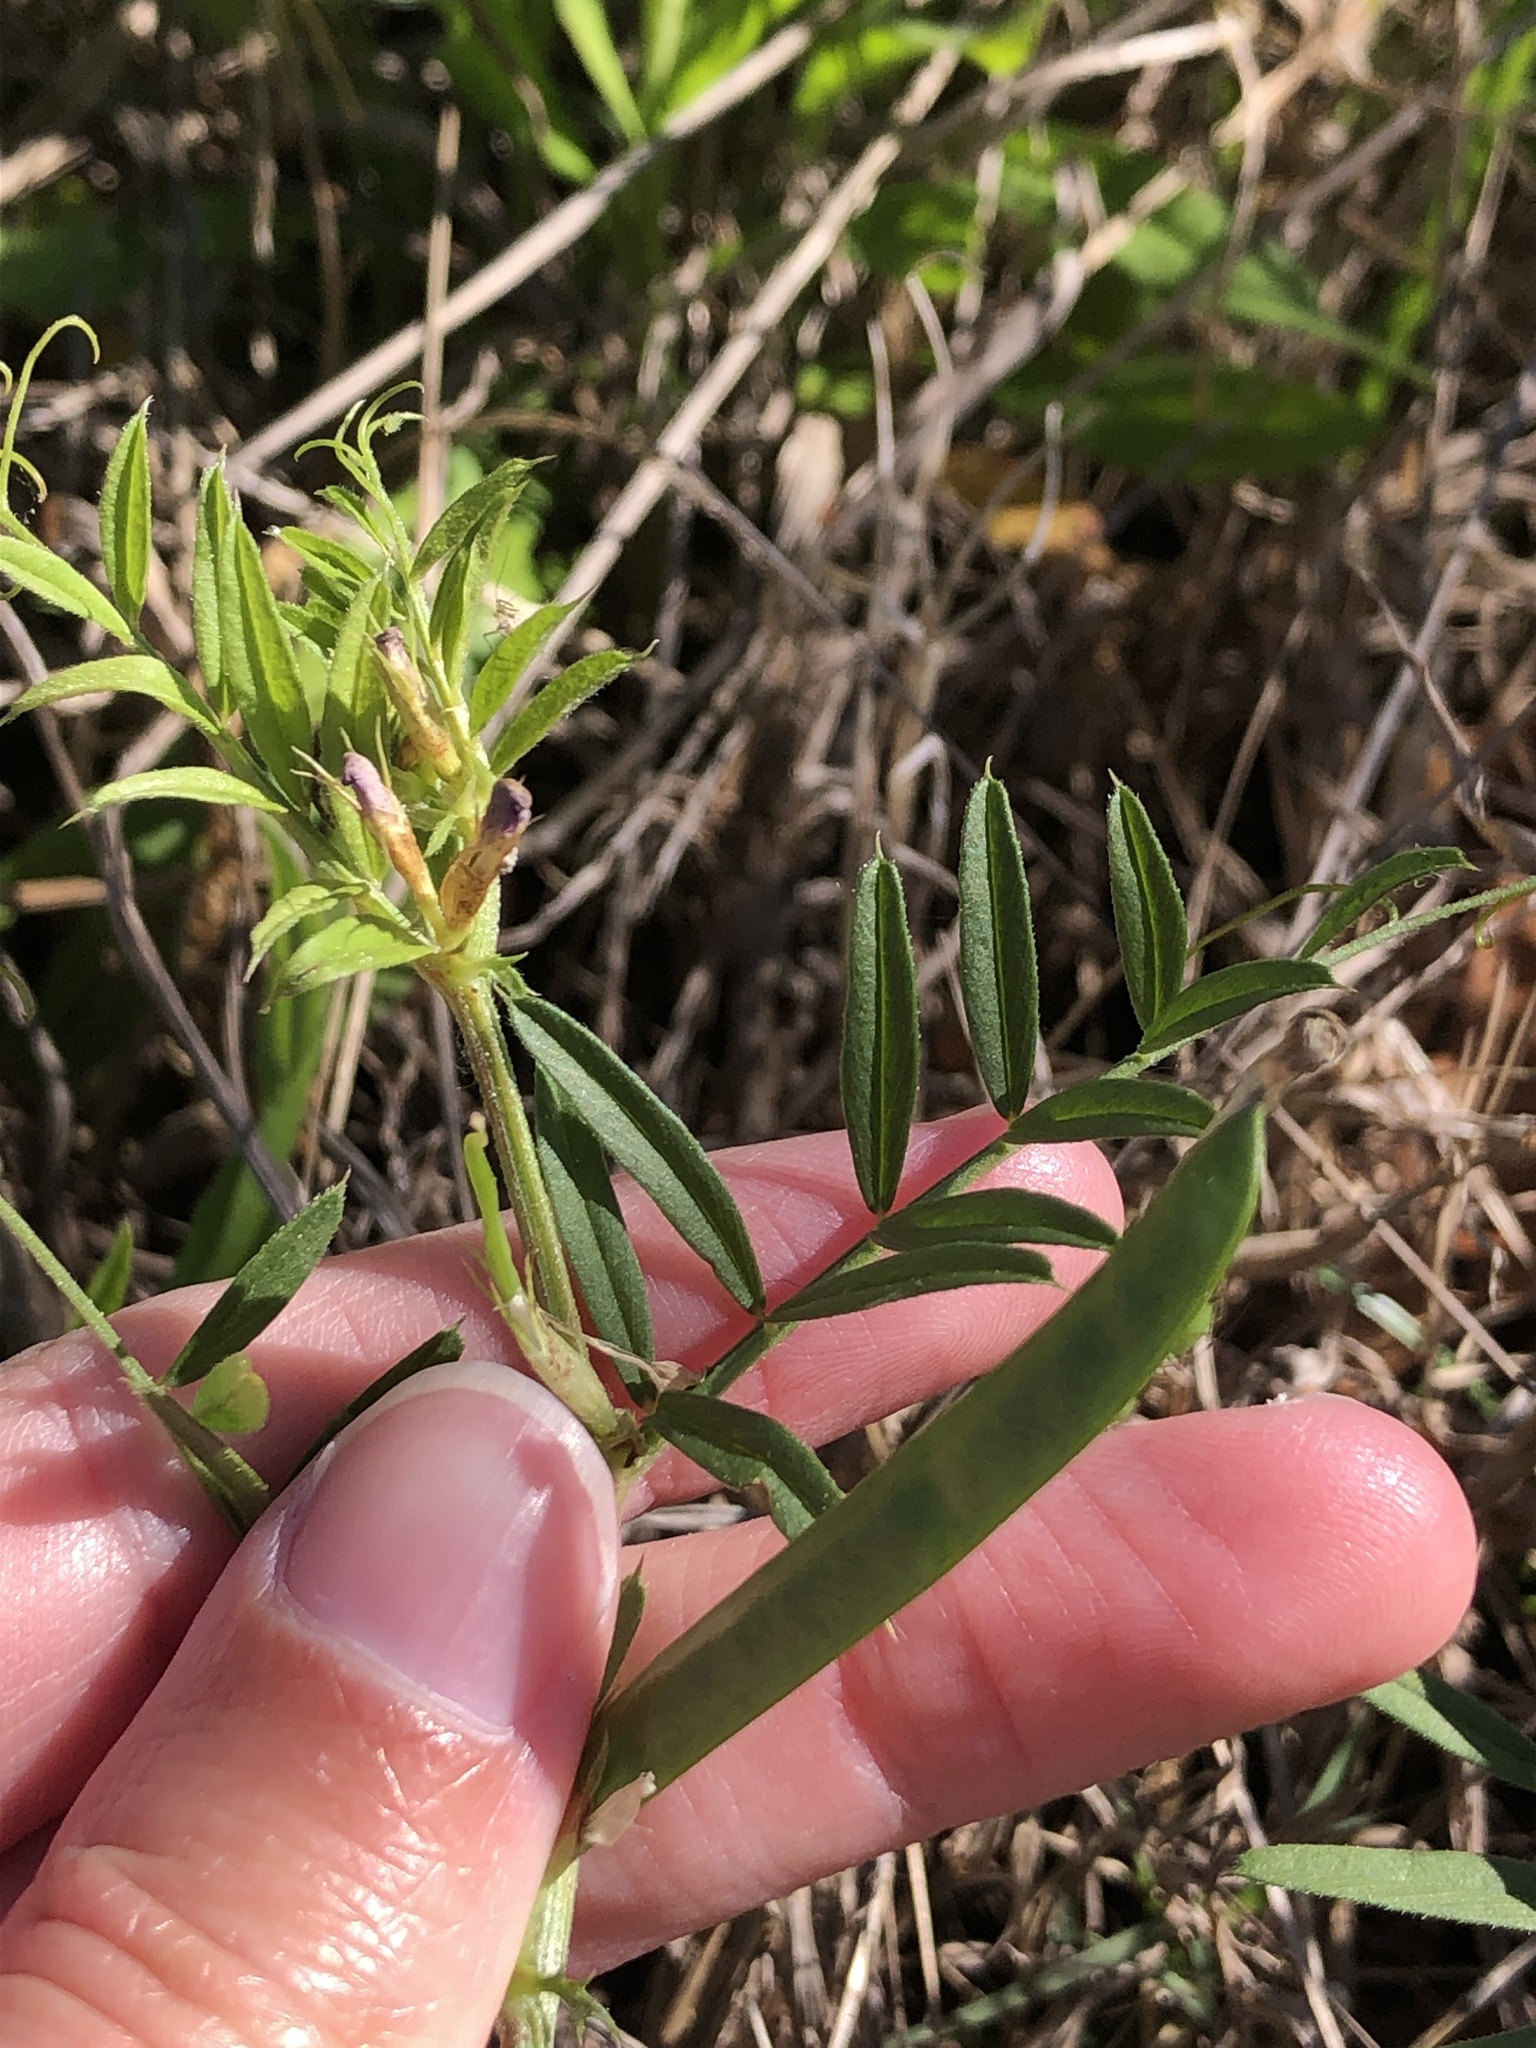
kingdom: Plantae
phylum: Tracheophyta
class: Magnoliopsida
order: Fabales
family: Fabaceae
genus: Vicia
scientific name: Vicia sativa
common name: Garden vetch
